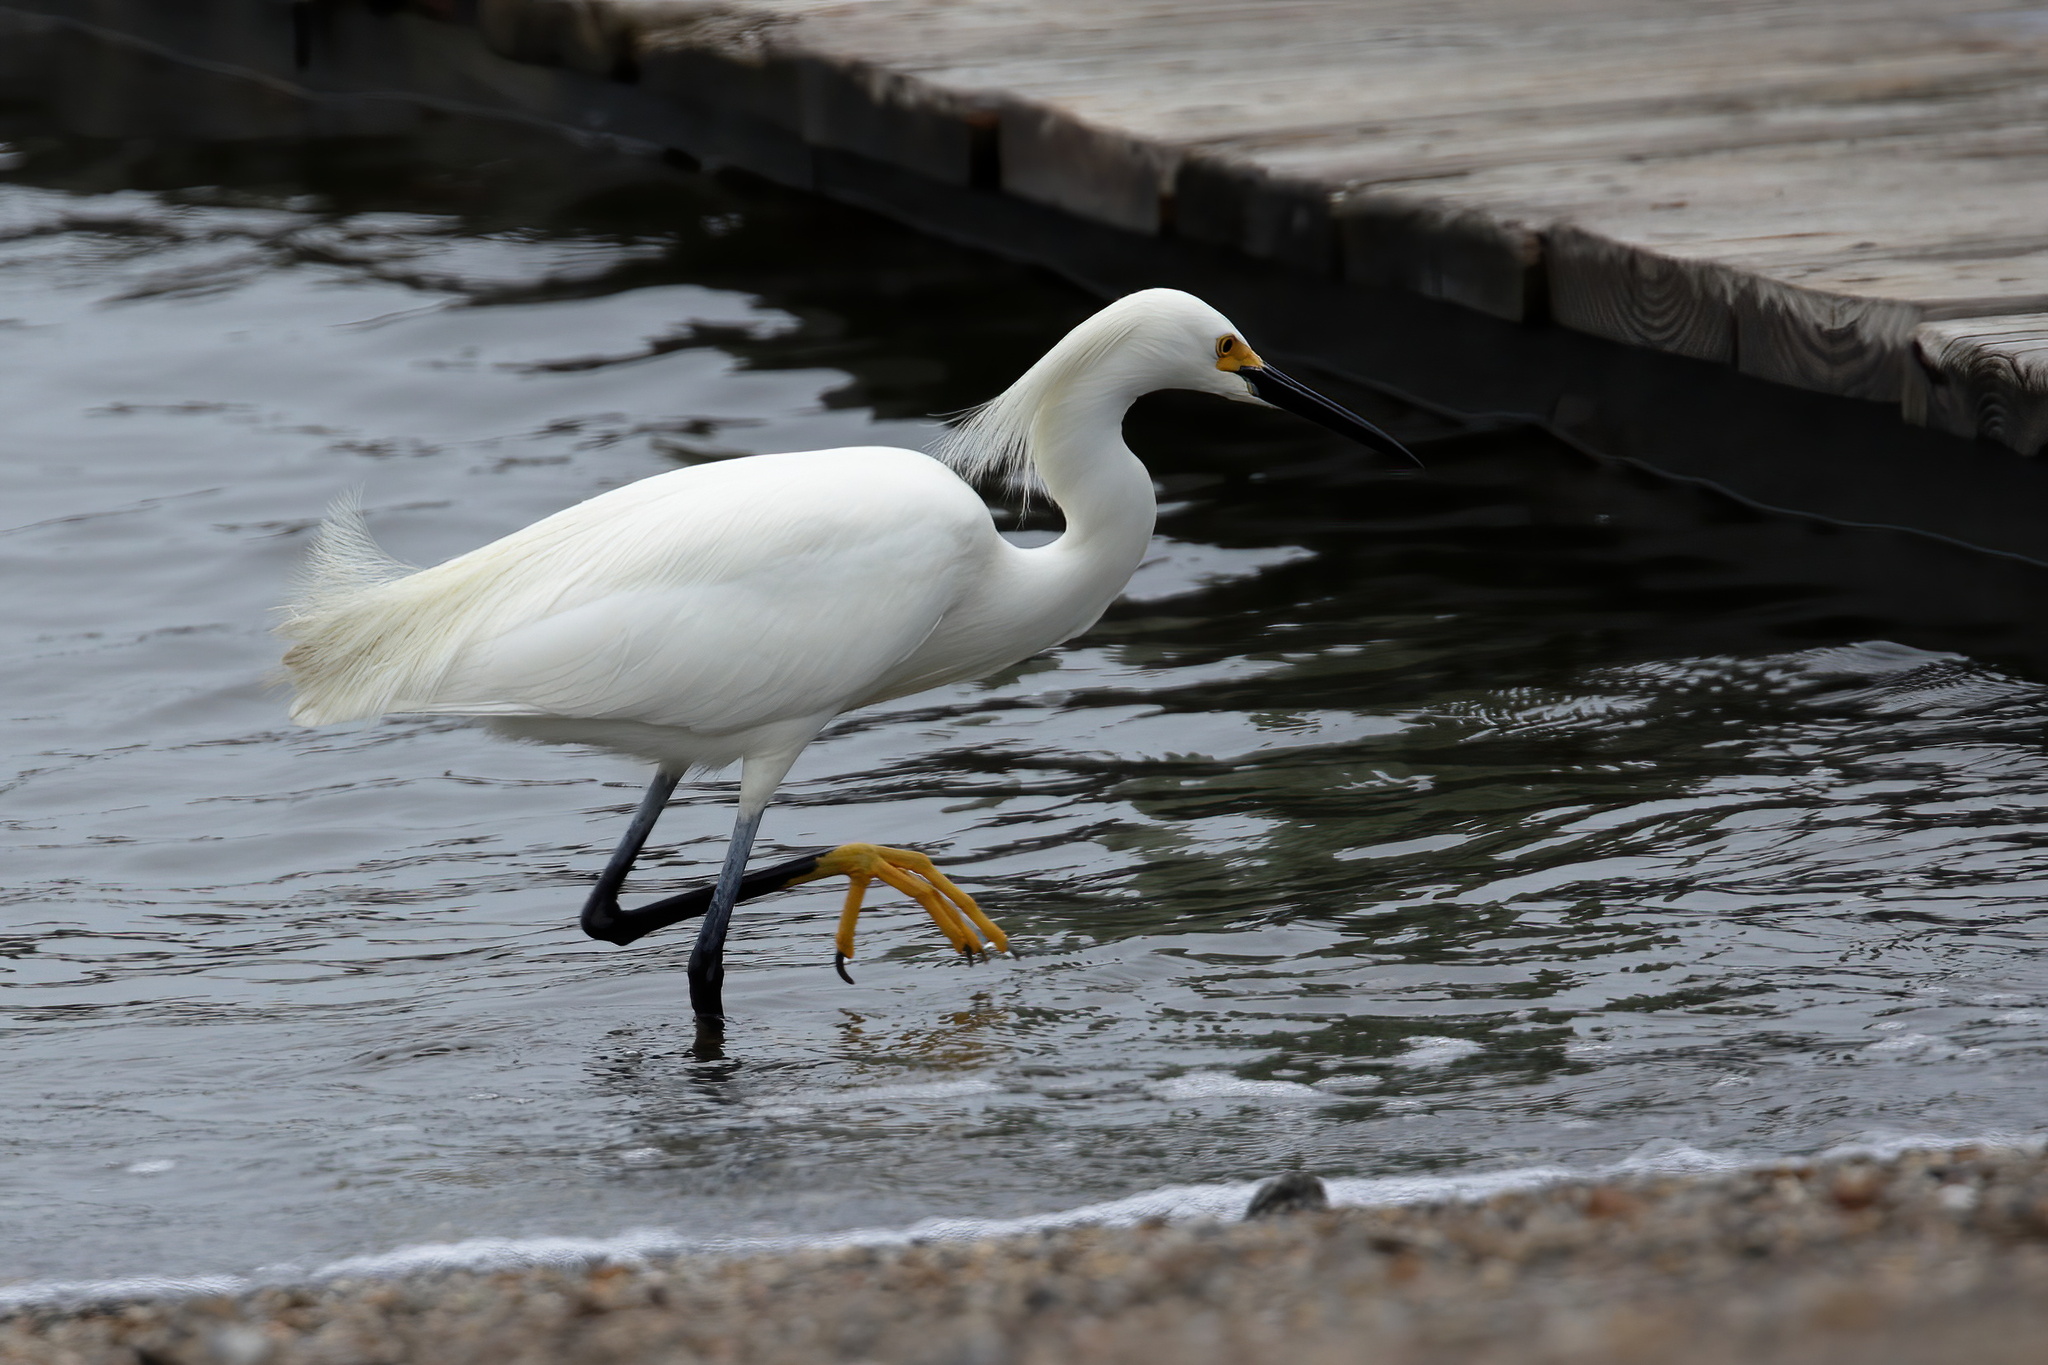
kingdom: Animalia
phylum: Chordata
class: Aves
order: Pelecaniformes
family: Ardeidae
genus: Egretta
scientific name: Egretta thula
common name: Snowy egret
